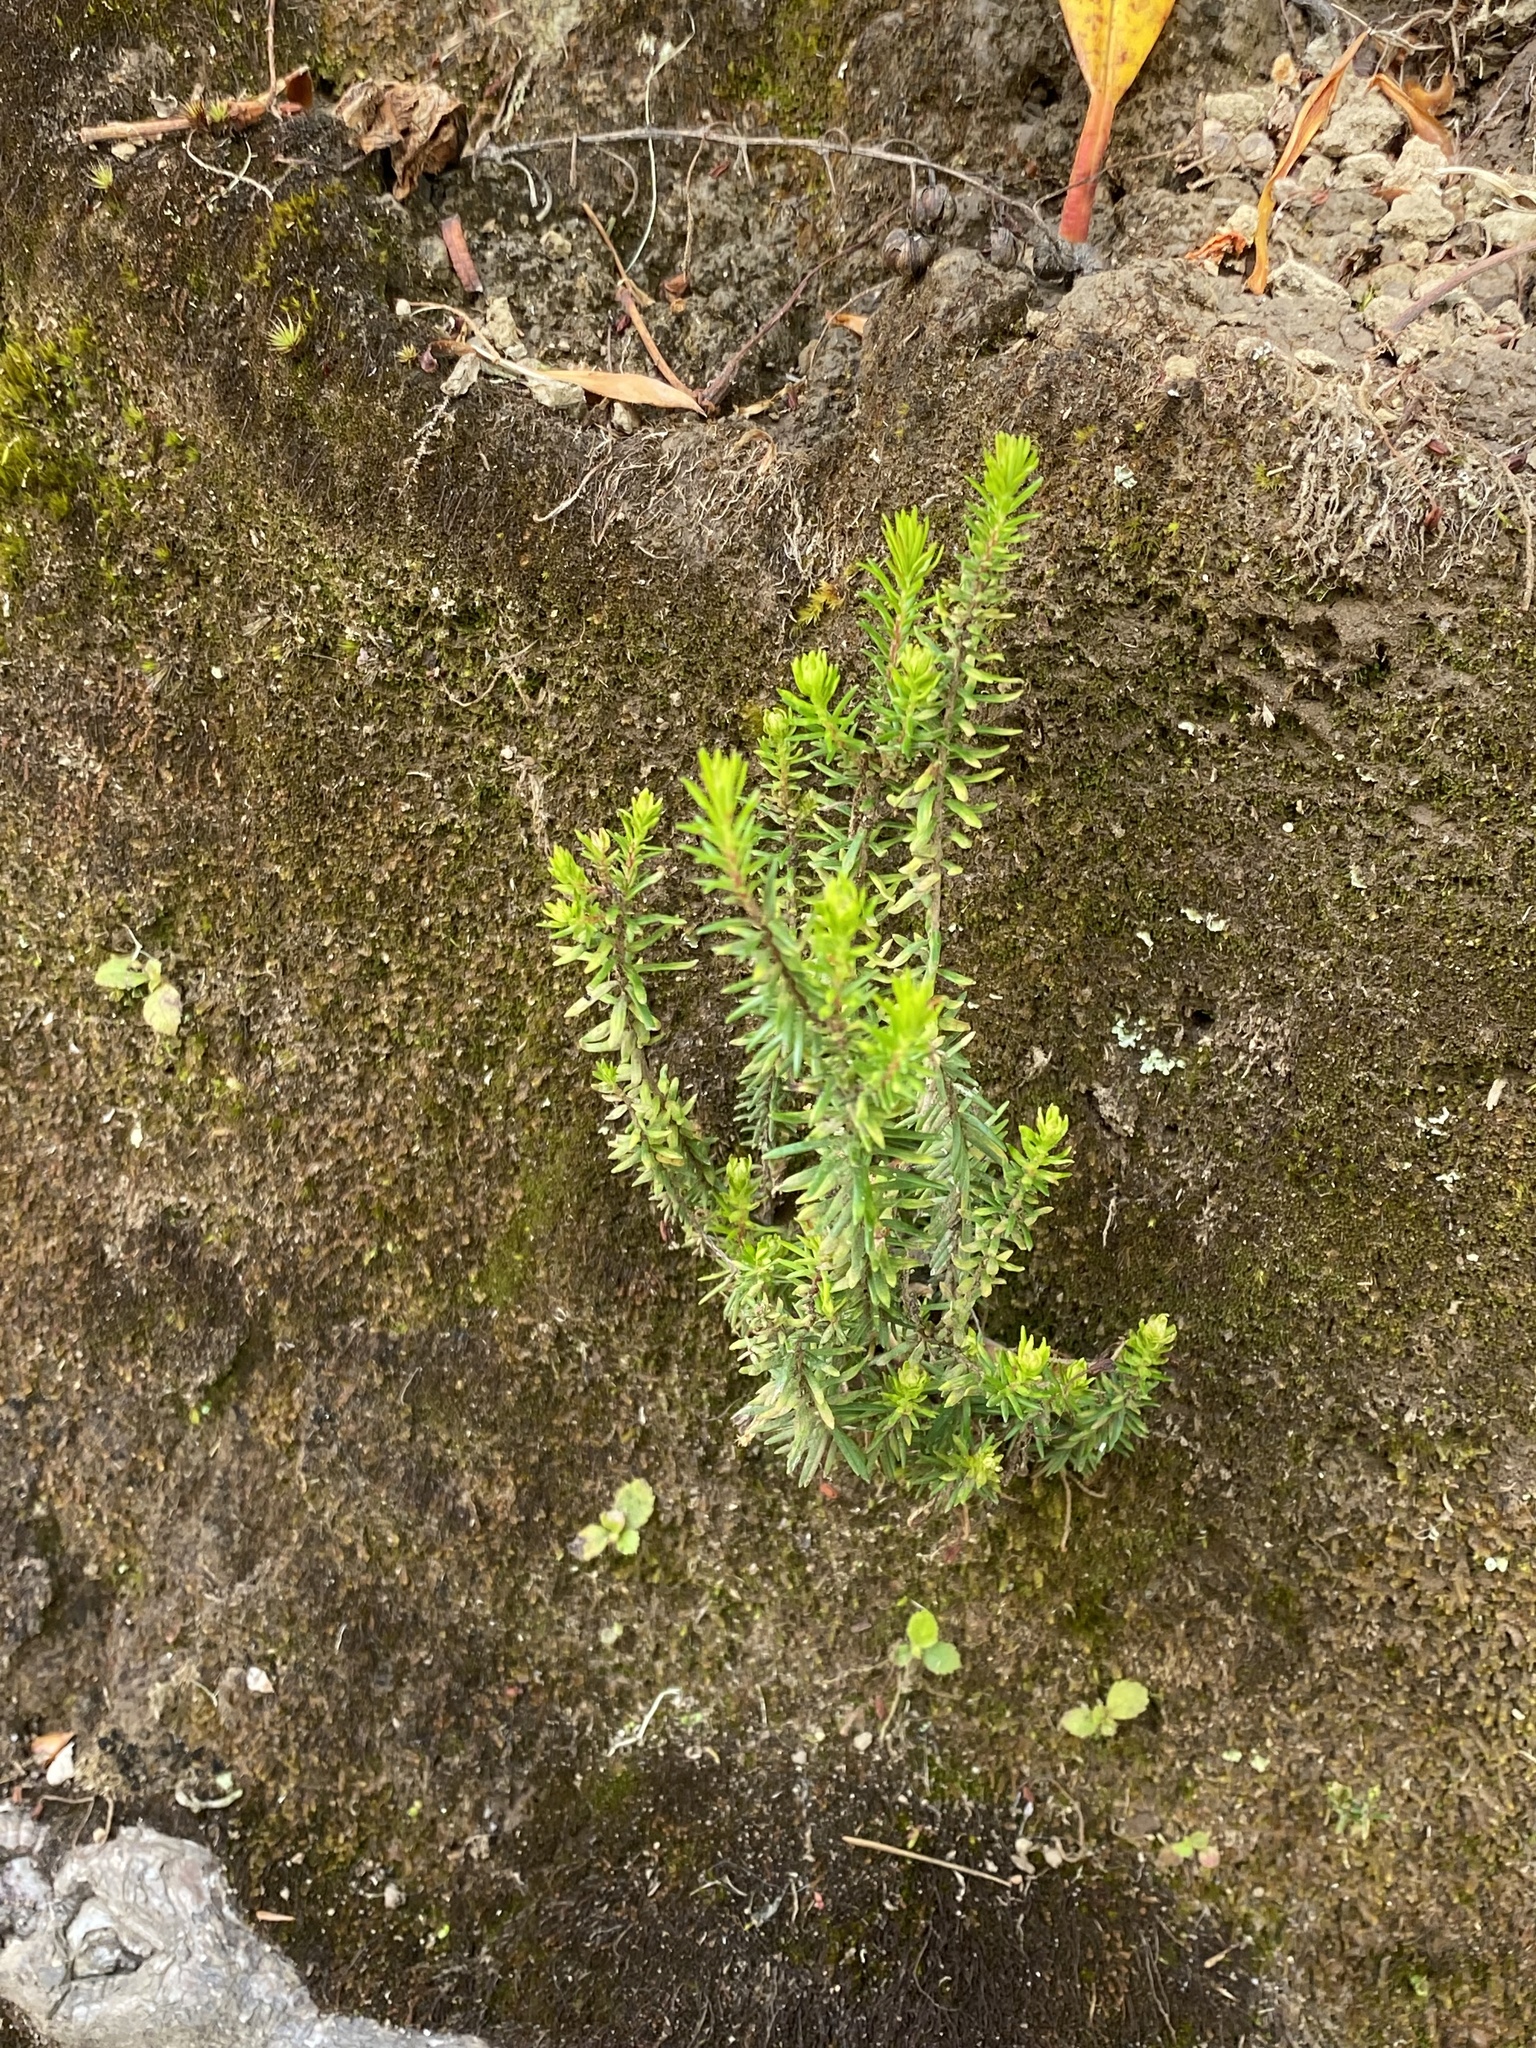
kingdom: Plantae
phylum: Tracheophyta
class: Magnoliopsida
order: Ericales
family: Ericaceae
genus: Erica
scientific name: Erica platycodon
